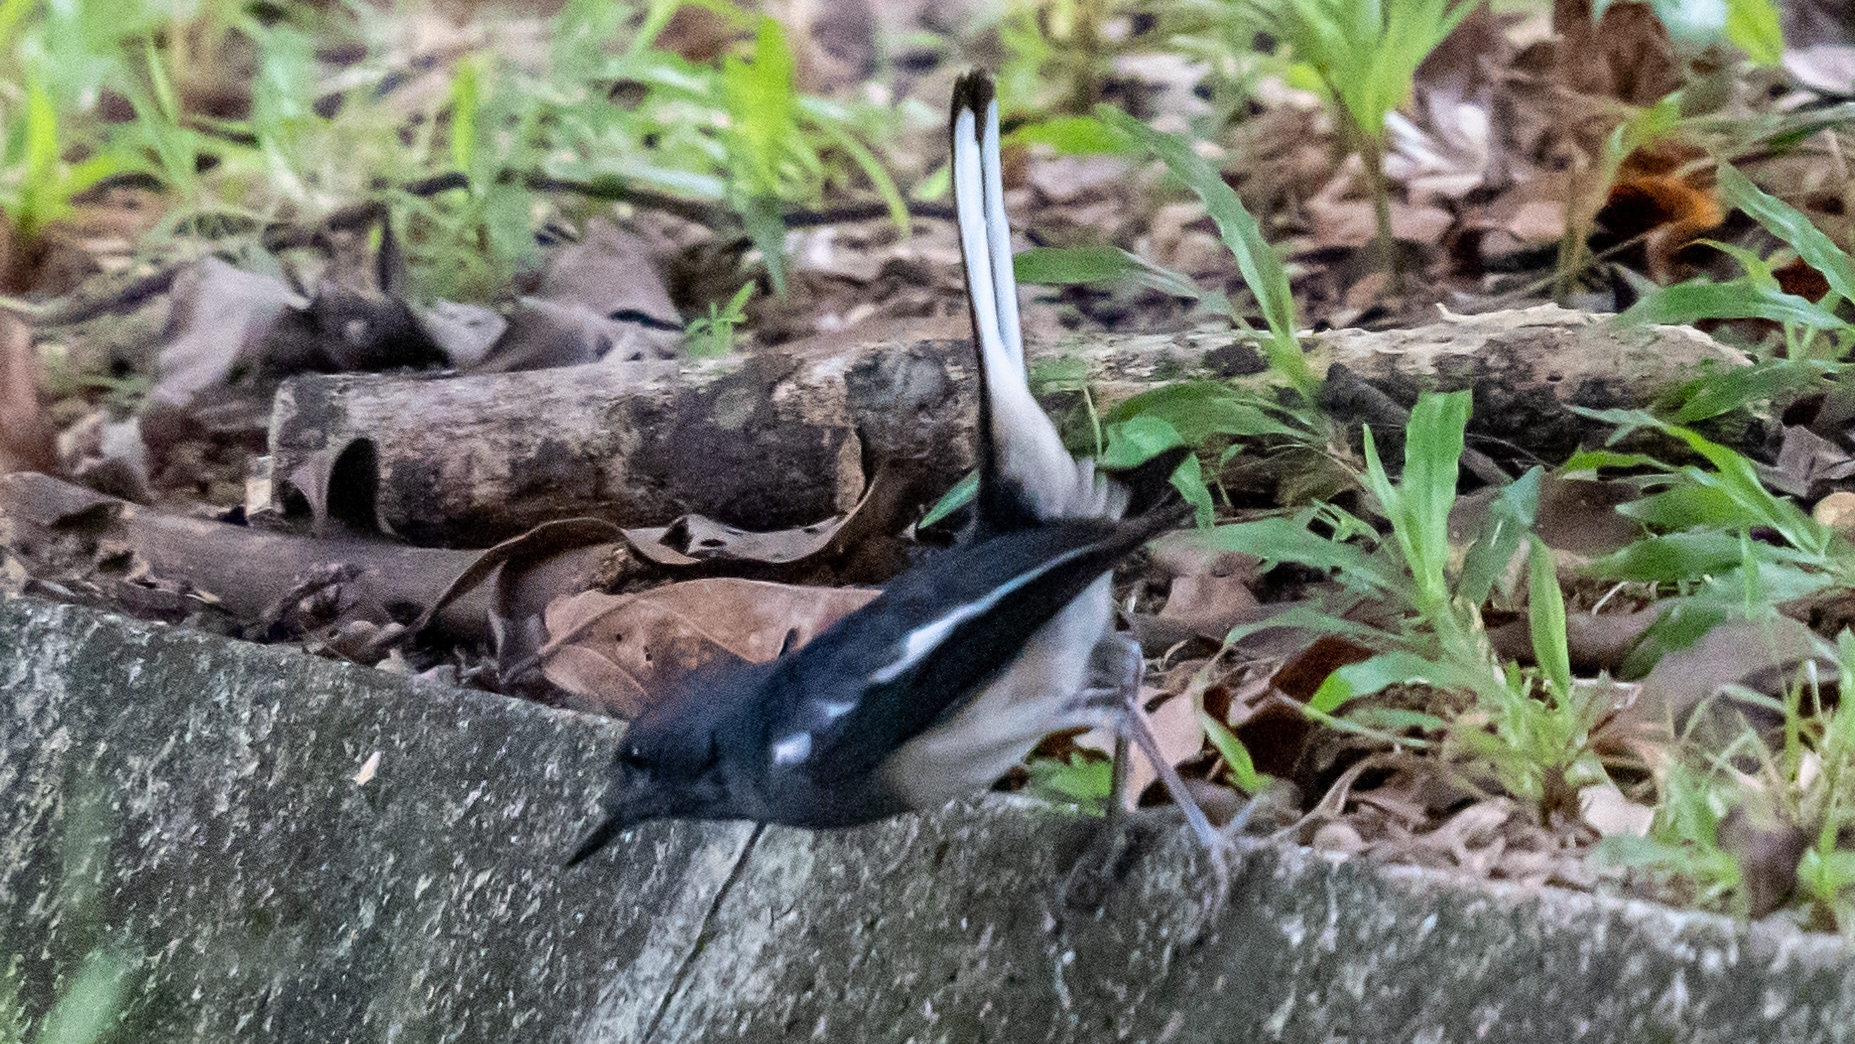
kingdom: Animalia
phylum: Chordata
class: Aves
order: Passeriformes
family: Muscicapidae
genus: Copsychus
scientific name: Copsychus saularis
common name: Oriental magpie-robin
